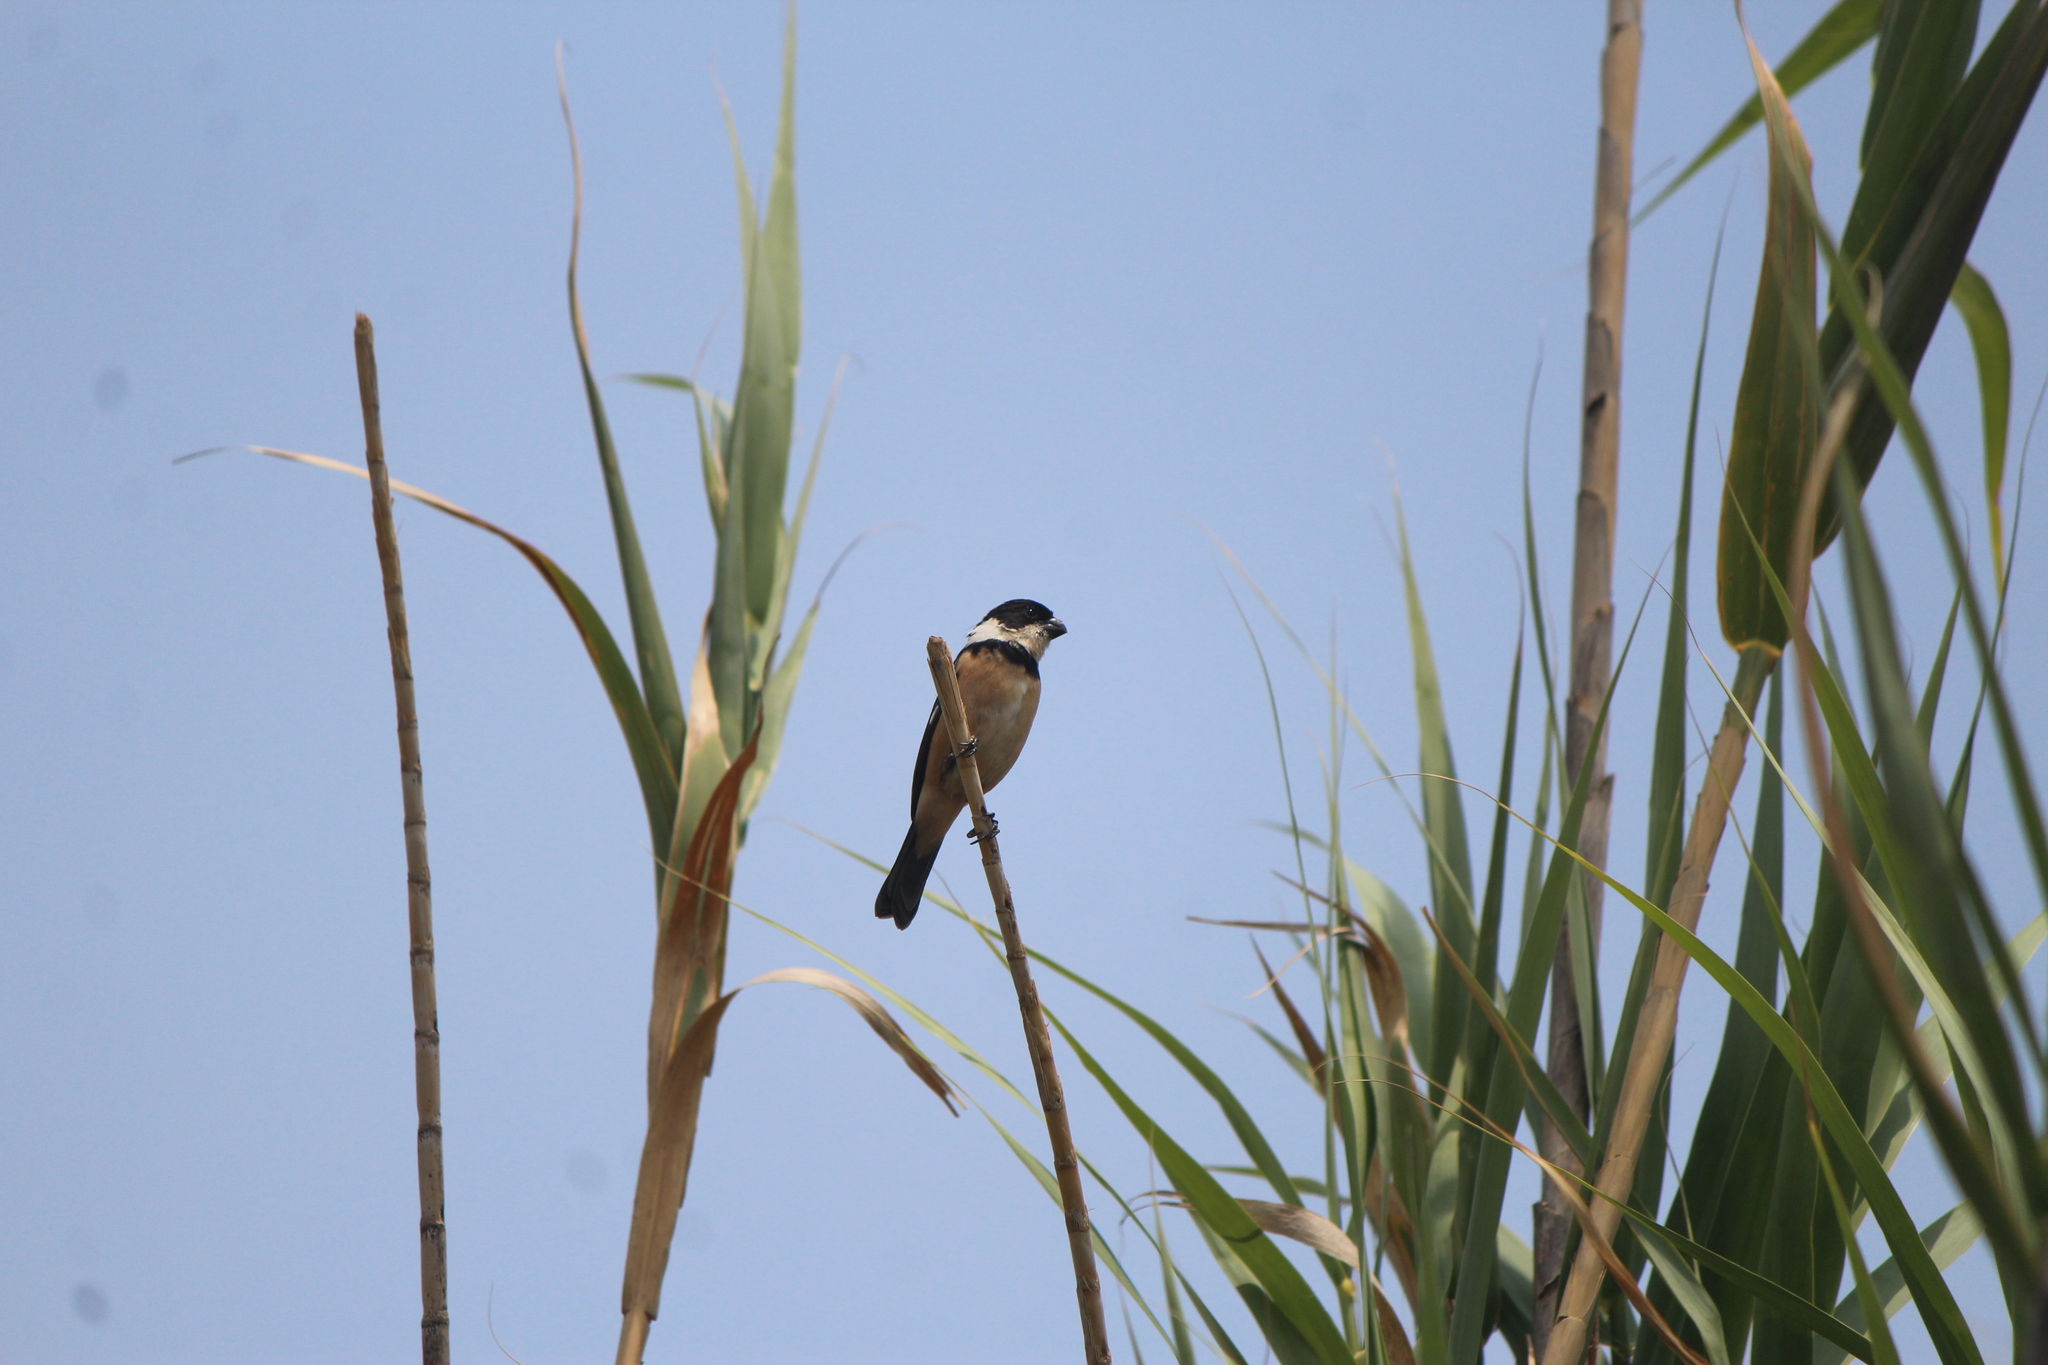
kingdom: Animalia
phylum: Chordata
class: Aves
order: Passeriformes
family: Thraupidae
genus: Sporophila
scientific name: Sporophila torqueola
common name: White-collared seedeater
